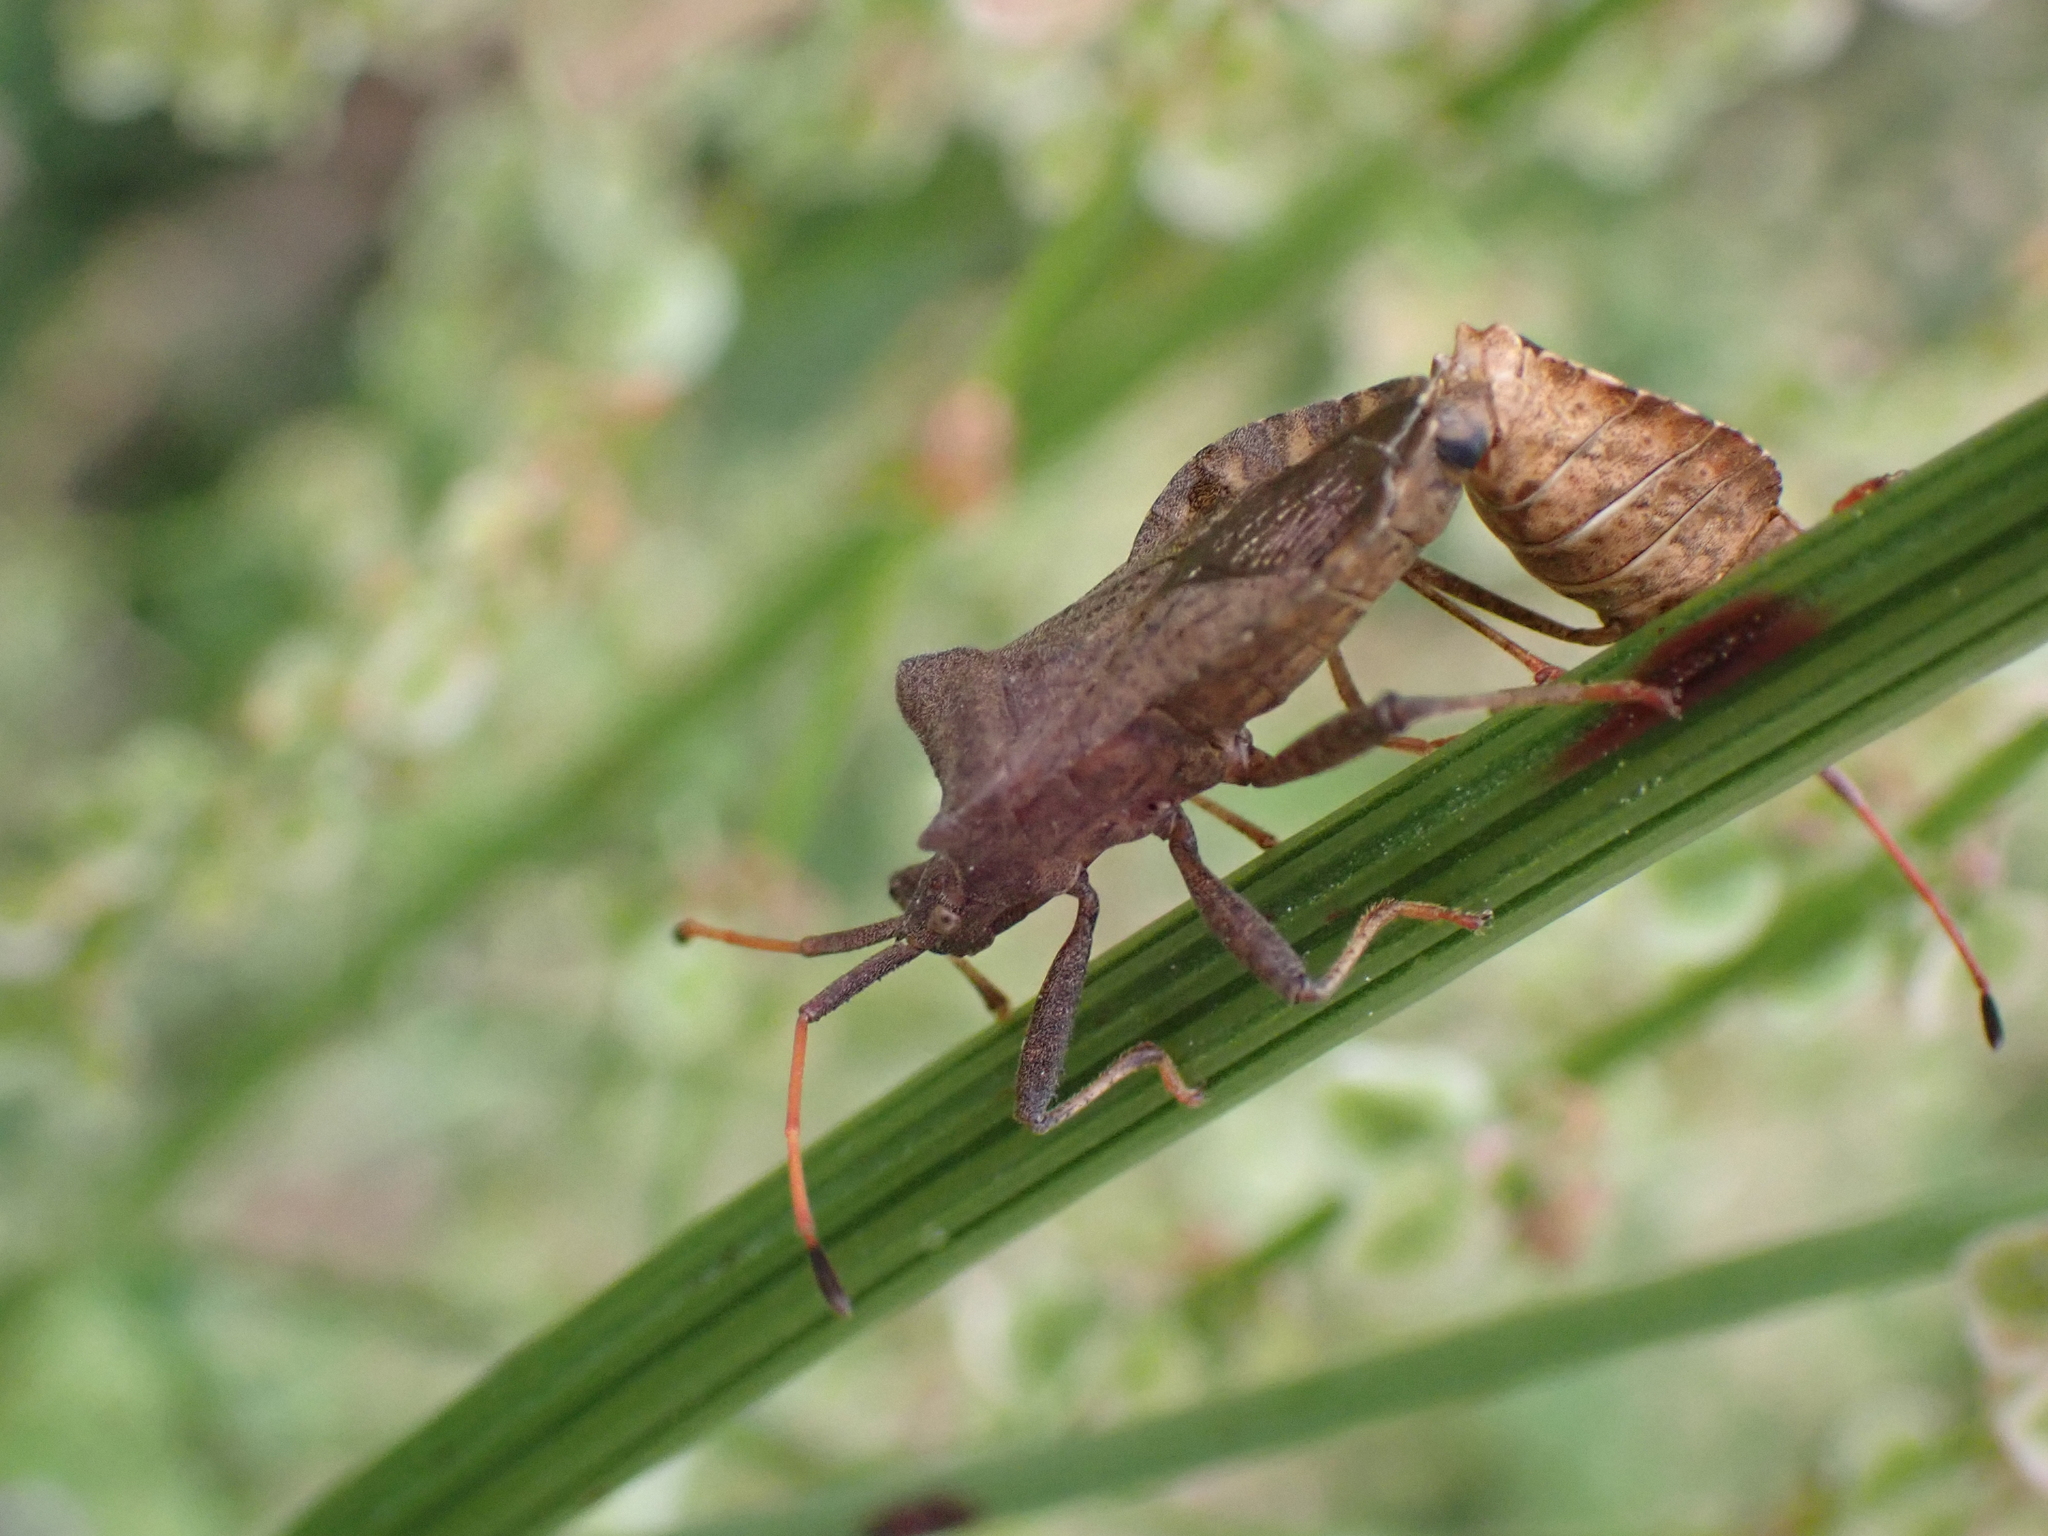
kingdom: Animalia
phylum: Arthropoda
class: Insecta
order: Hemiptera
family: Coreidae
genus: Coreus
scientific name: Coreus marginatus
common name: Dock bug
